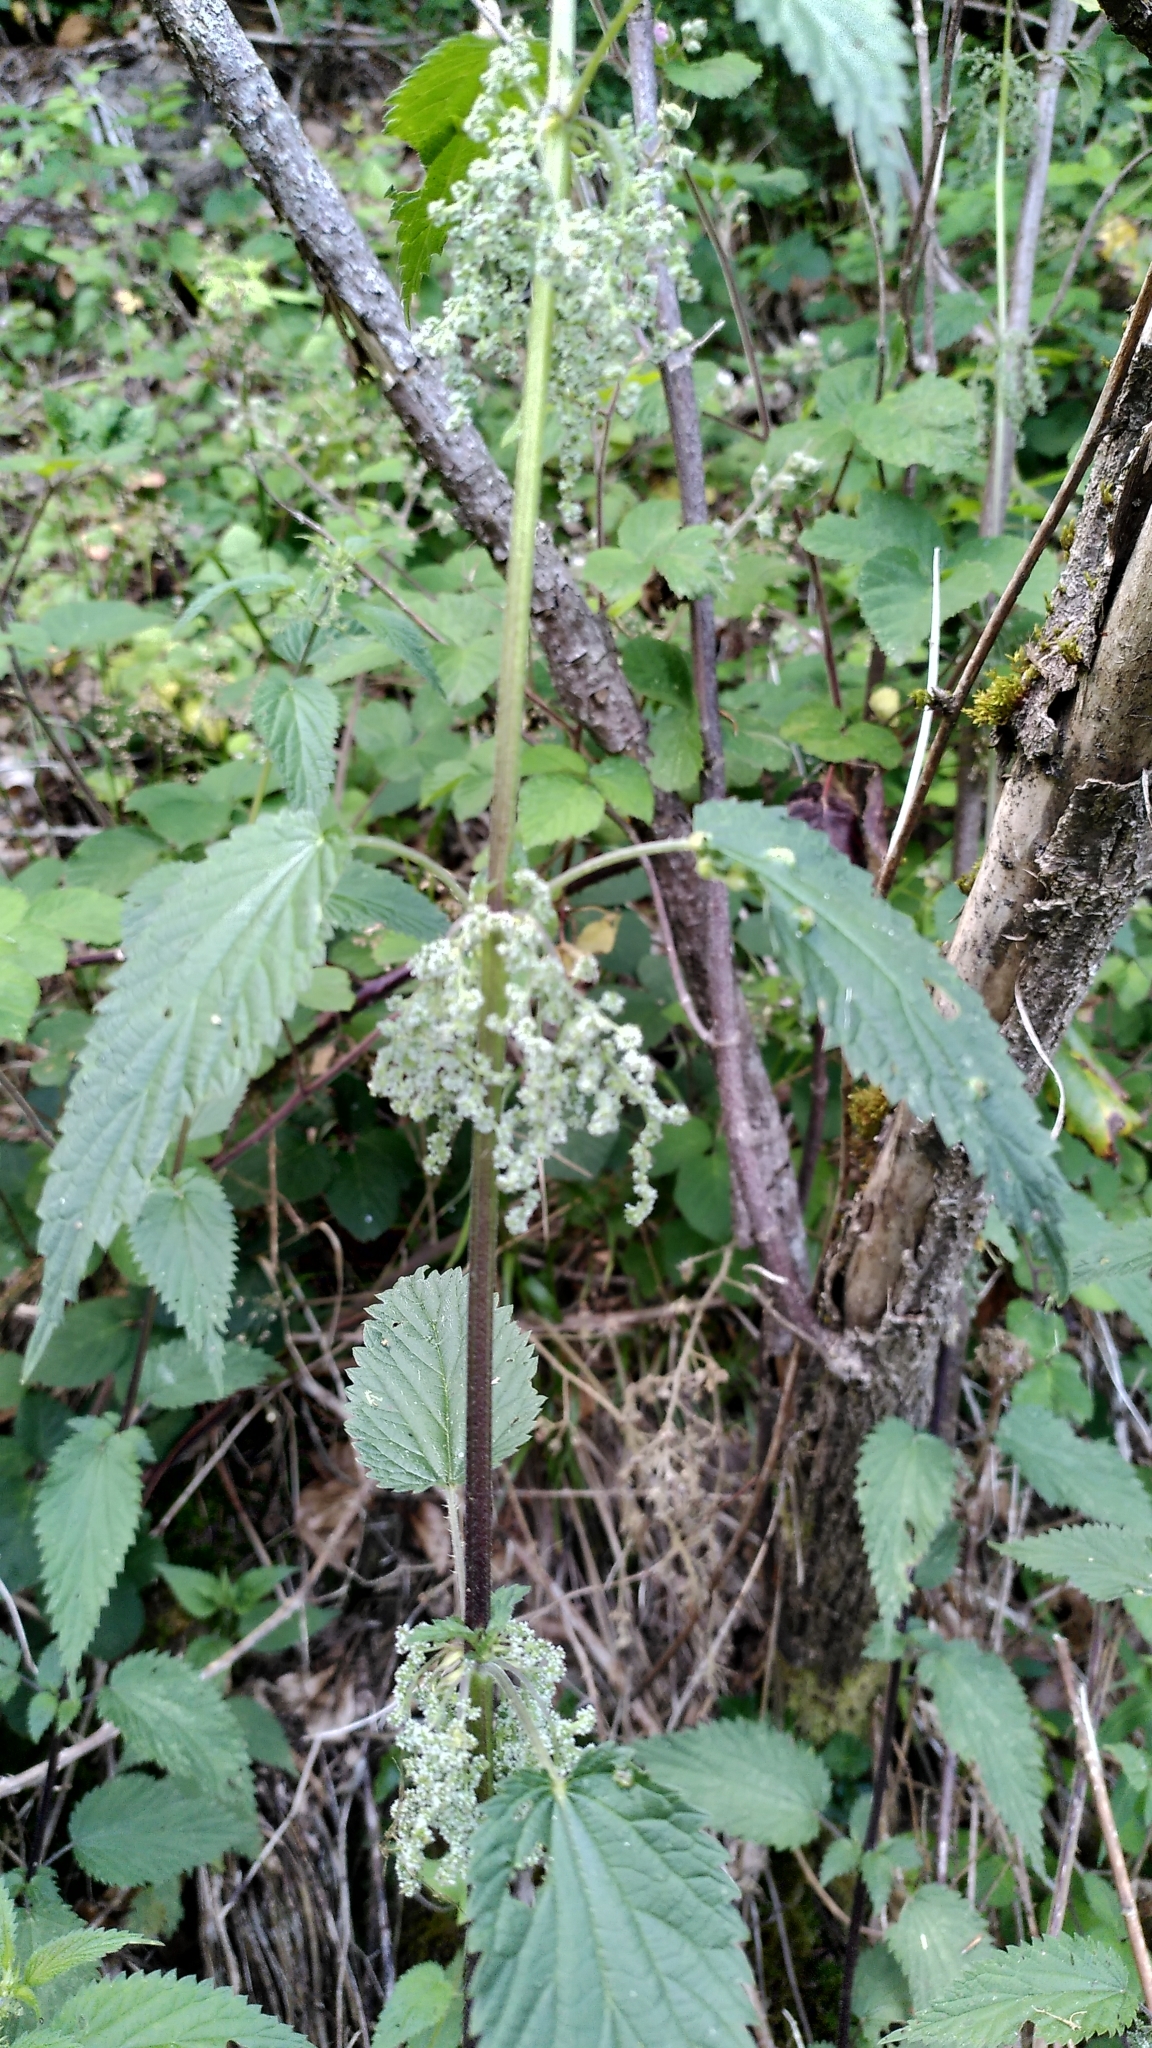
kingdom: Plantae
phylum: Tracheophyta
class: Magnoliopsida
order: Rosales
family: Urticaceae
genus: Urtica
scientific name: Urtica dioica
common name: Common nettle
